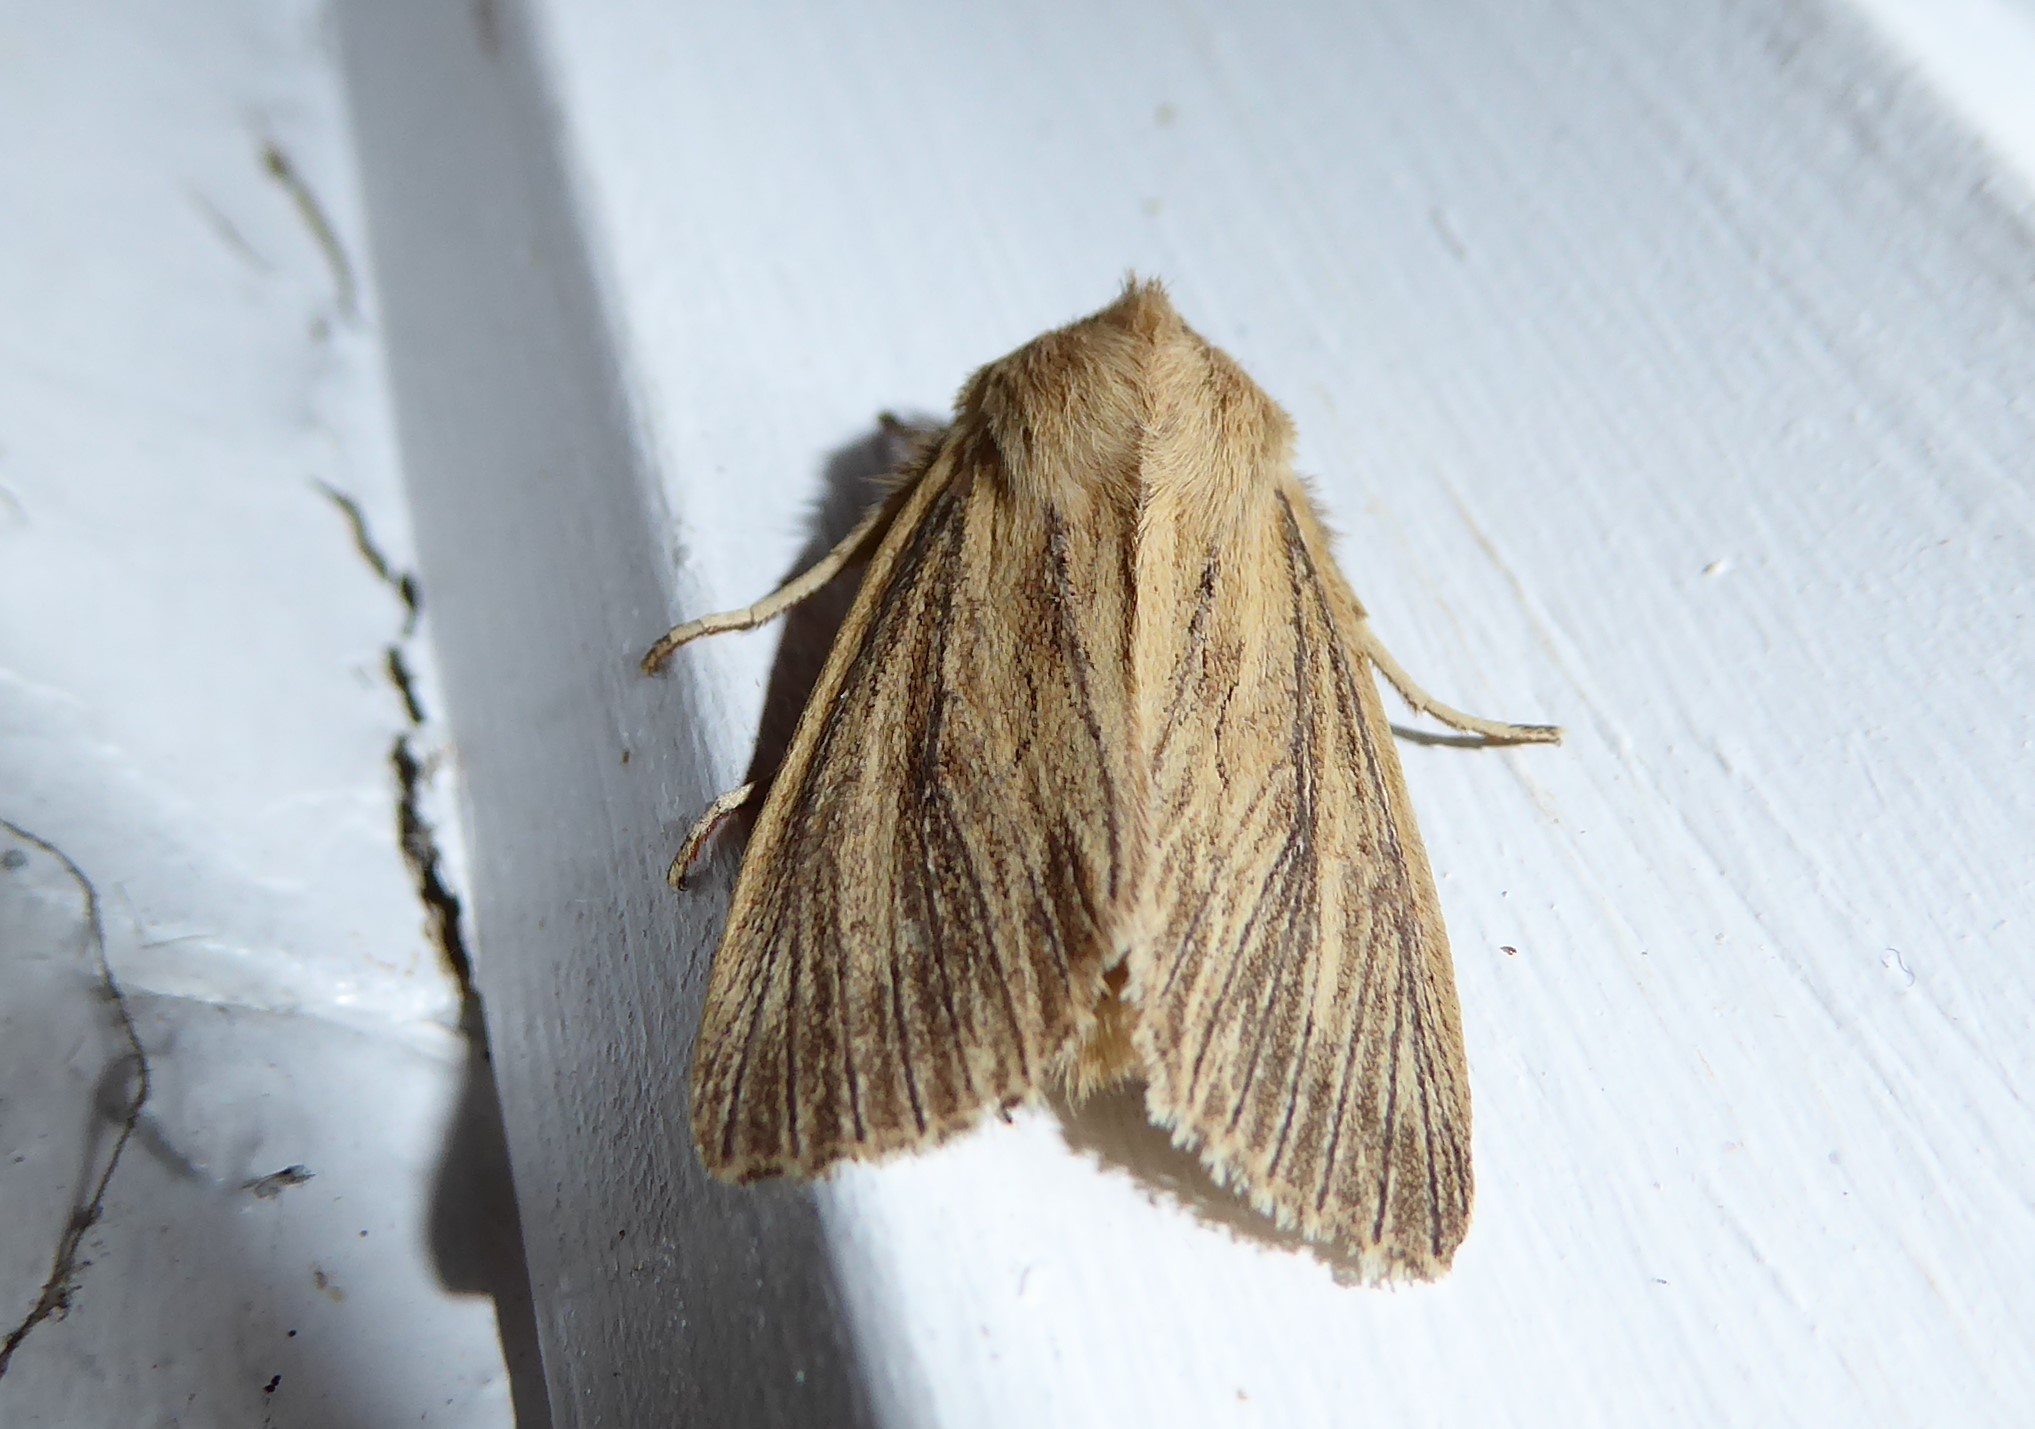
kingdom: Animalia
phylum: Arthropoda
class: Insecta
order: Lepidoptera
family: Noctuidae
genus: Ichneutica
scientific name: Ichneutica arotis
